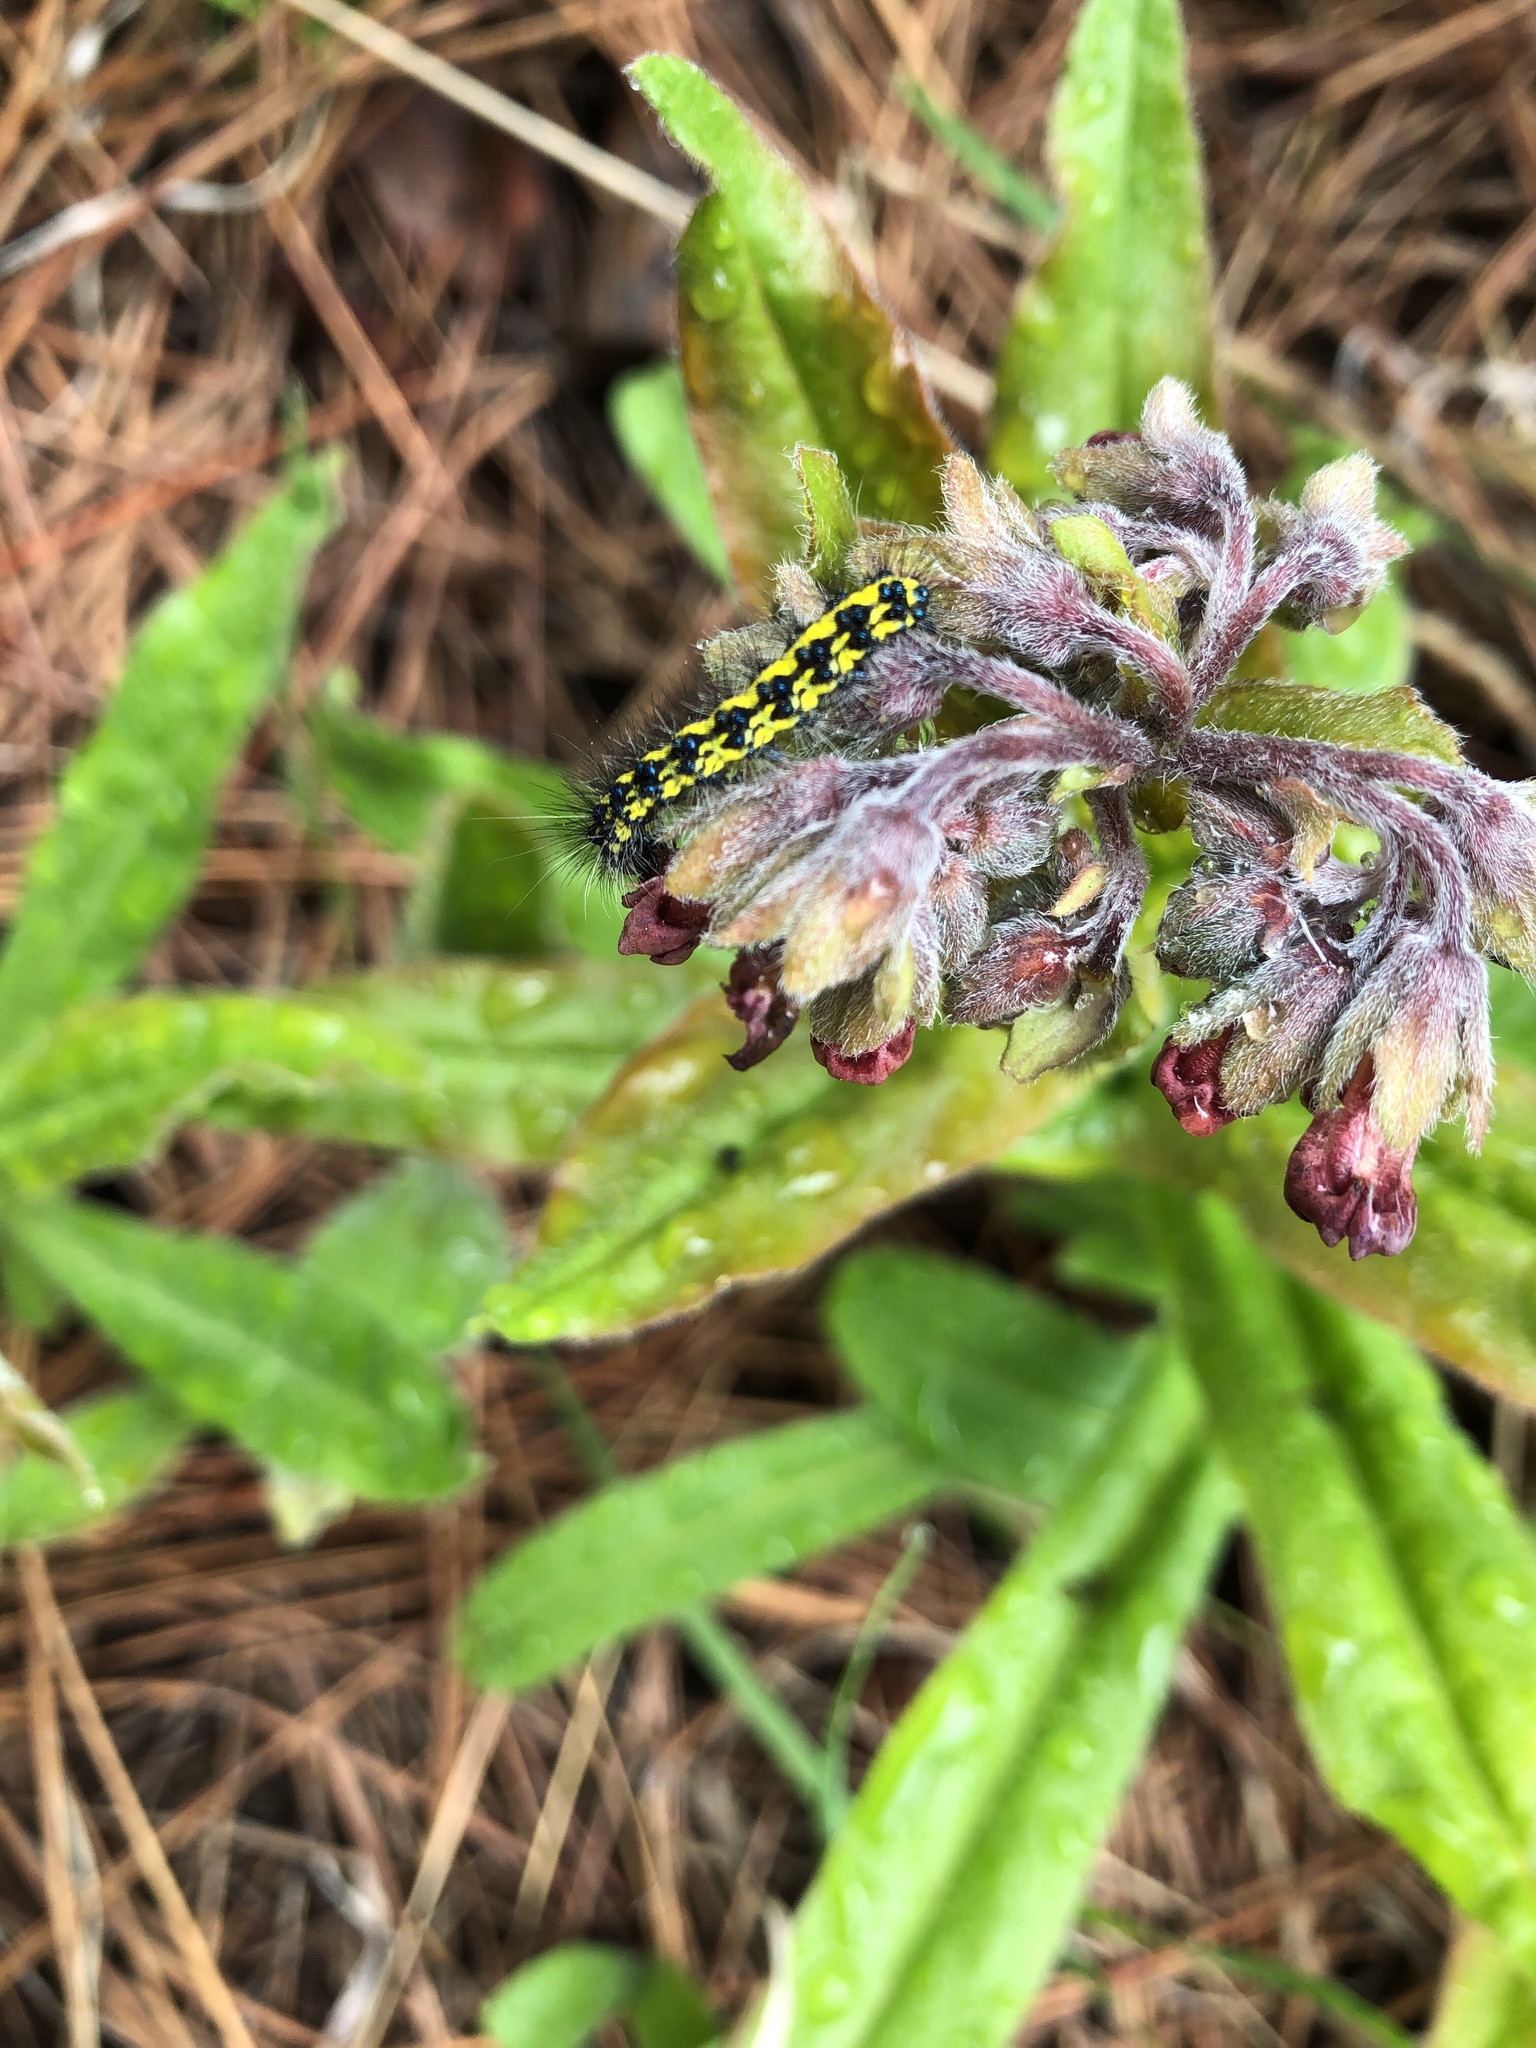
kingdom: Plantae
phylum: Tracheophyta
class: Magnoliopsida
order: Boraginales
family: Boraginaceae
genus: Andersonglossum
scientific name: Andersonglossum occidentale
